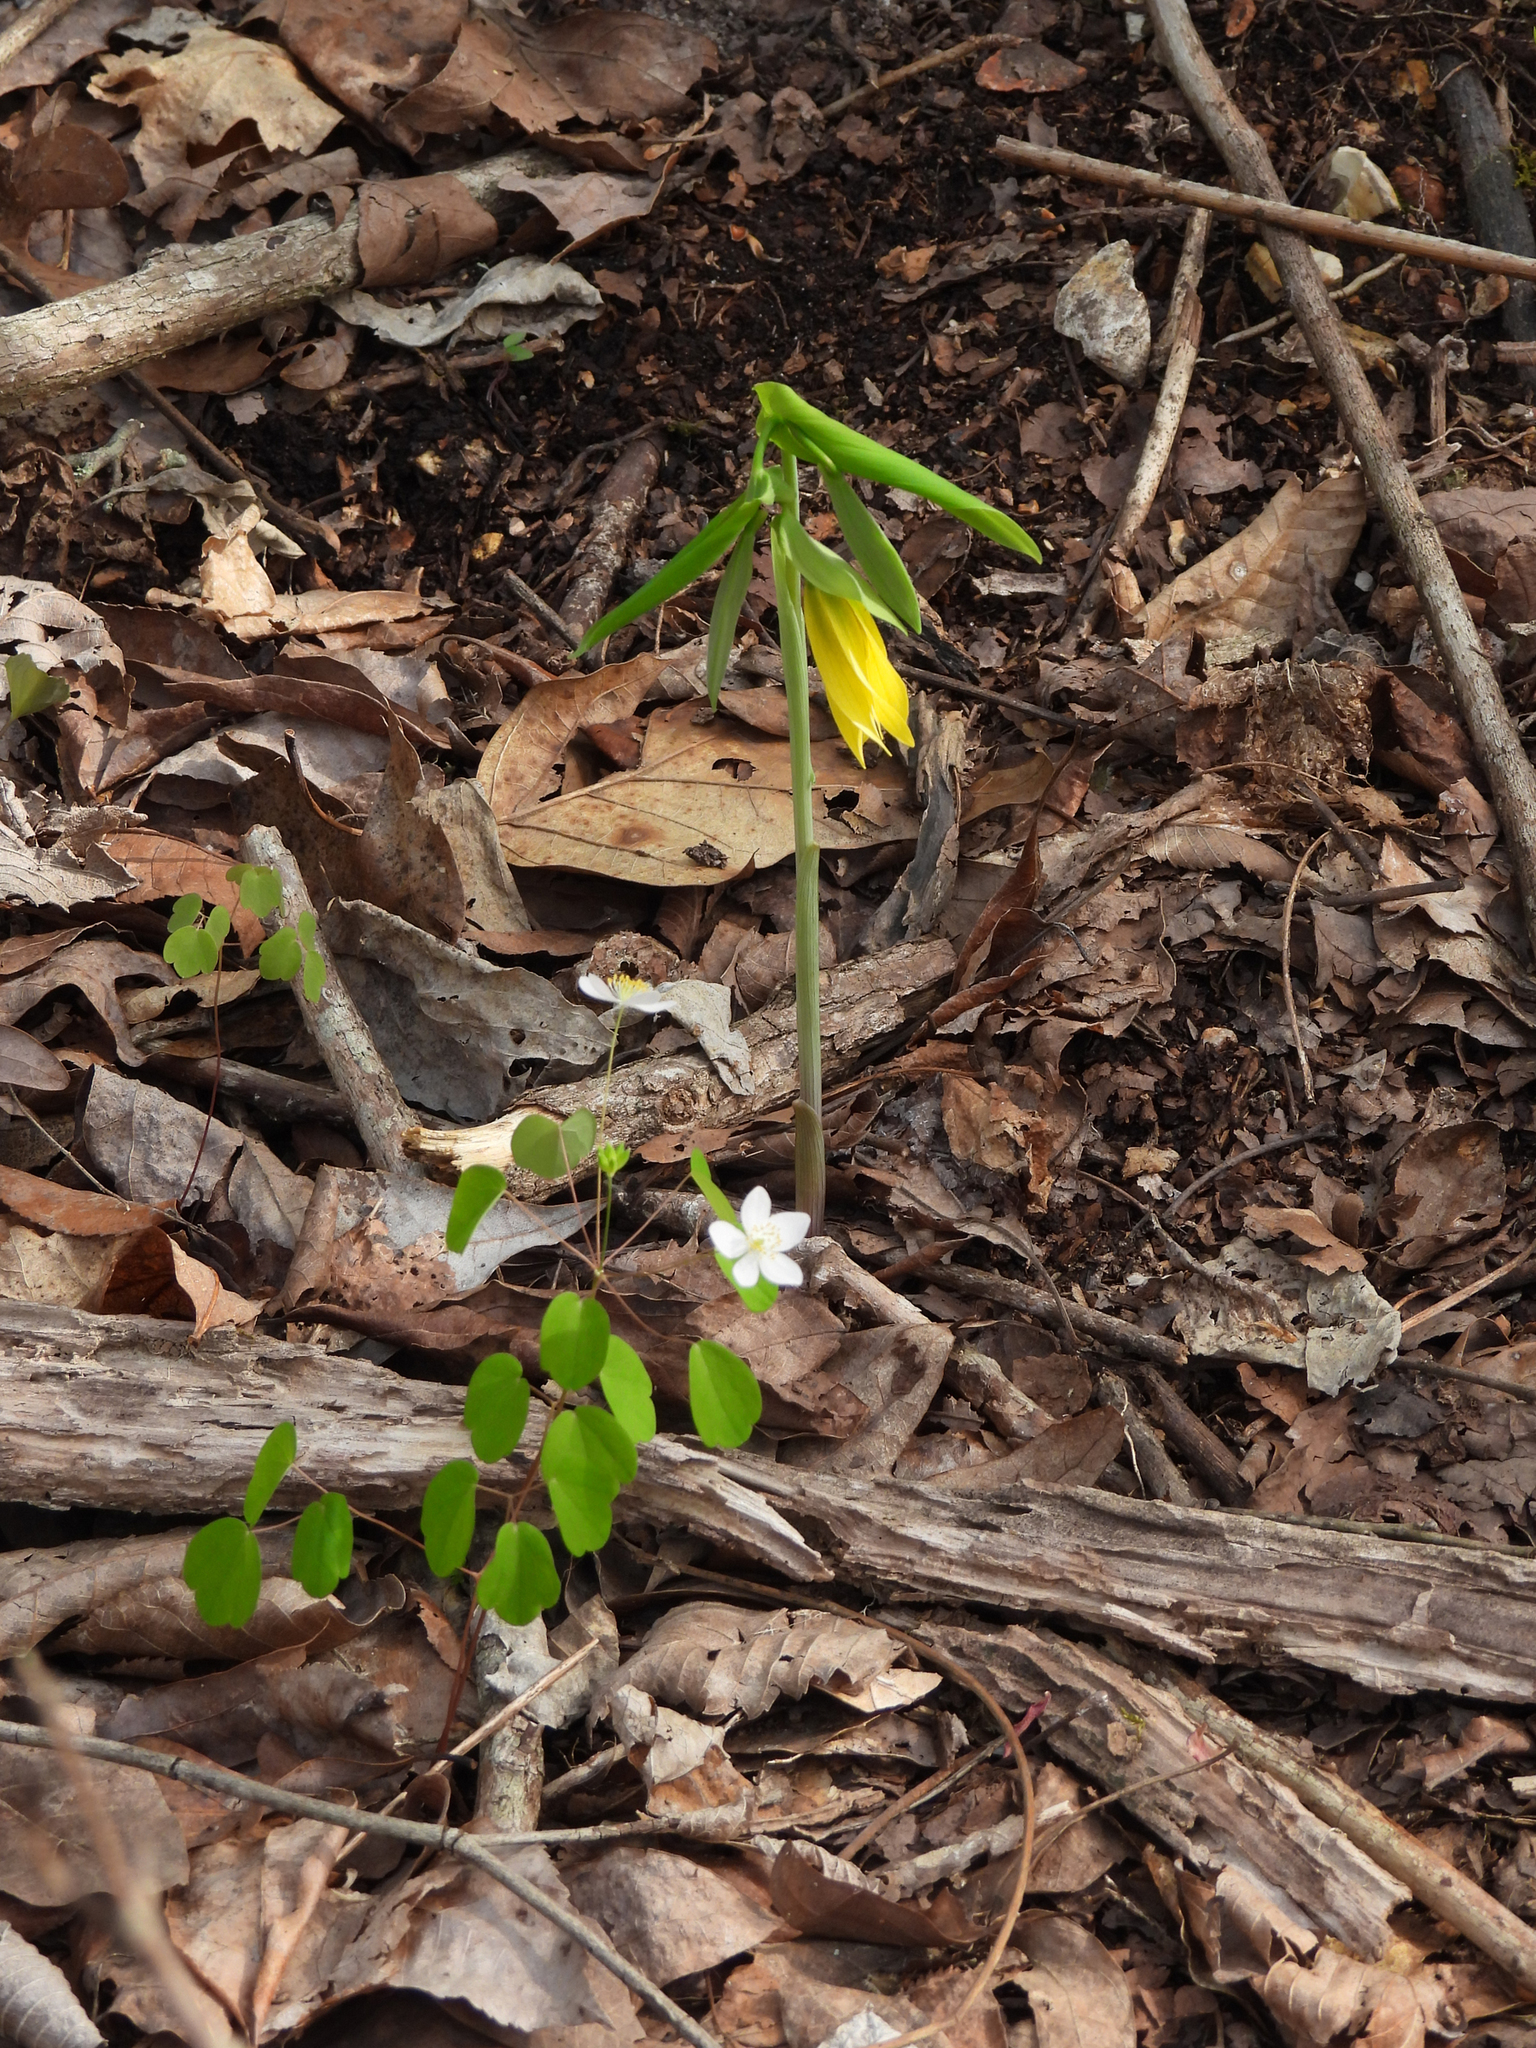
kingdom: Plantae
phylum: Tracheophyta
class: Liliopsida
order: Liliales
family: Colchicaceae
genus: Uvularia
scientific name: Uvularia grandiflora
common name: Bellwort
